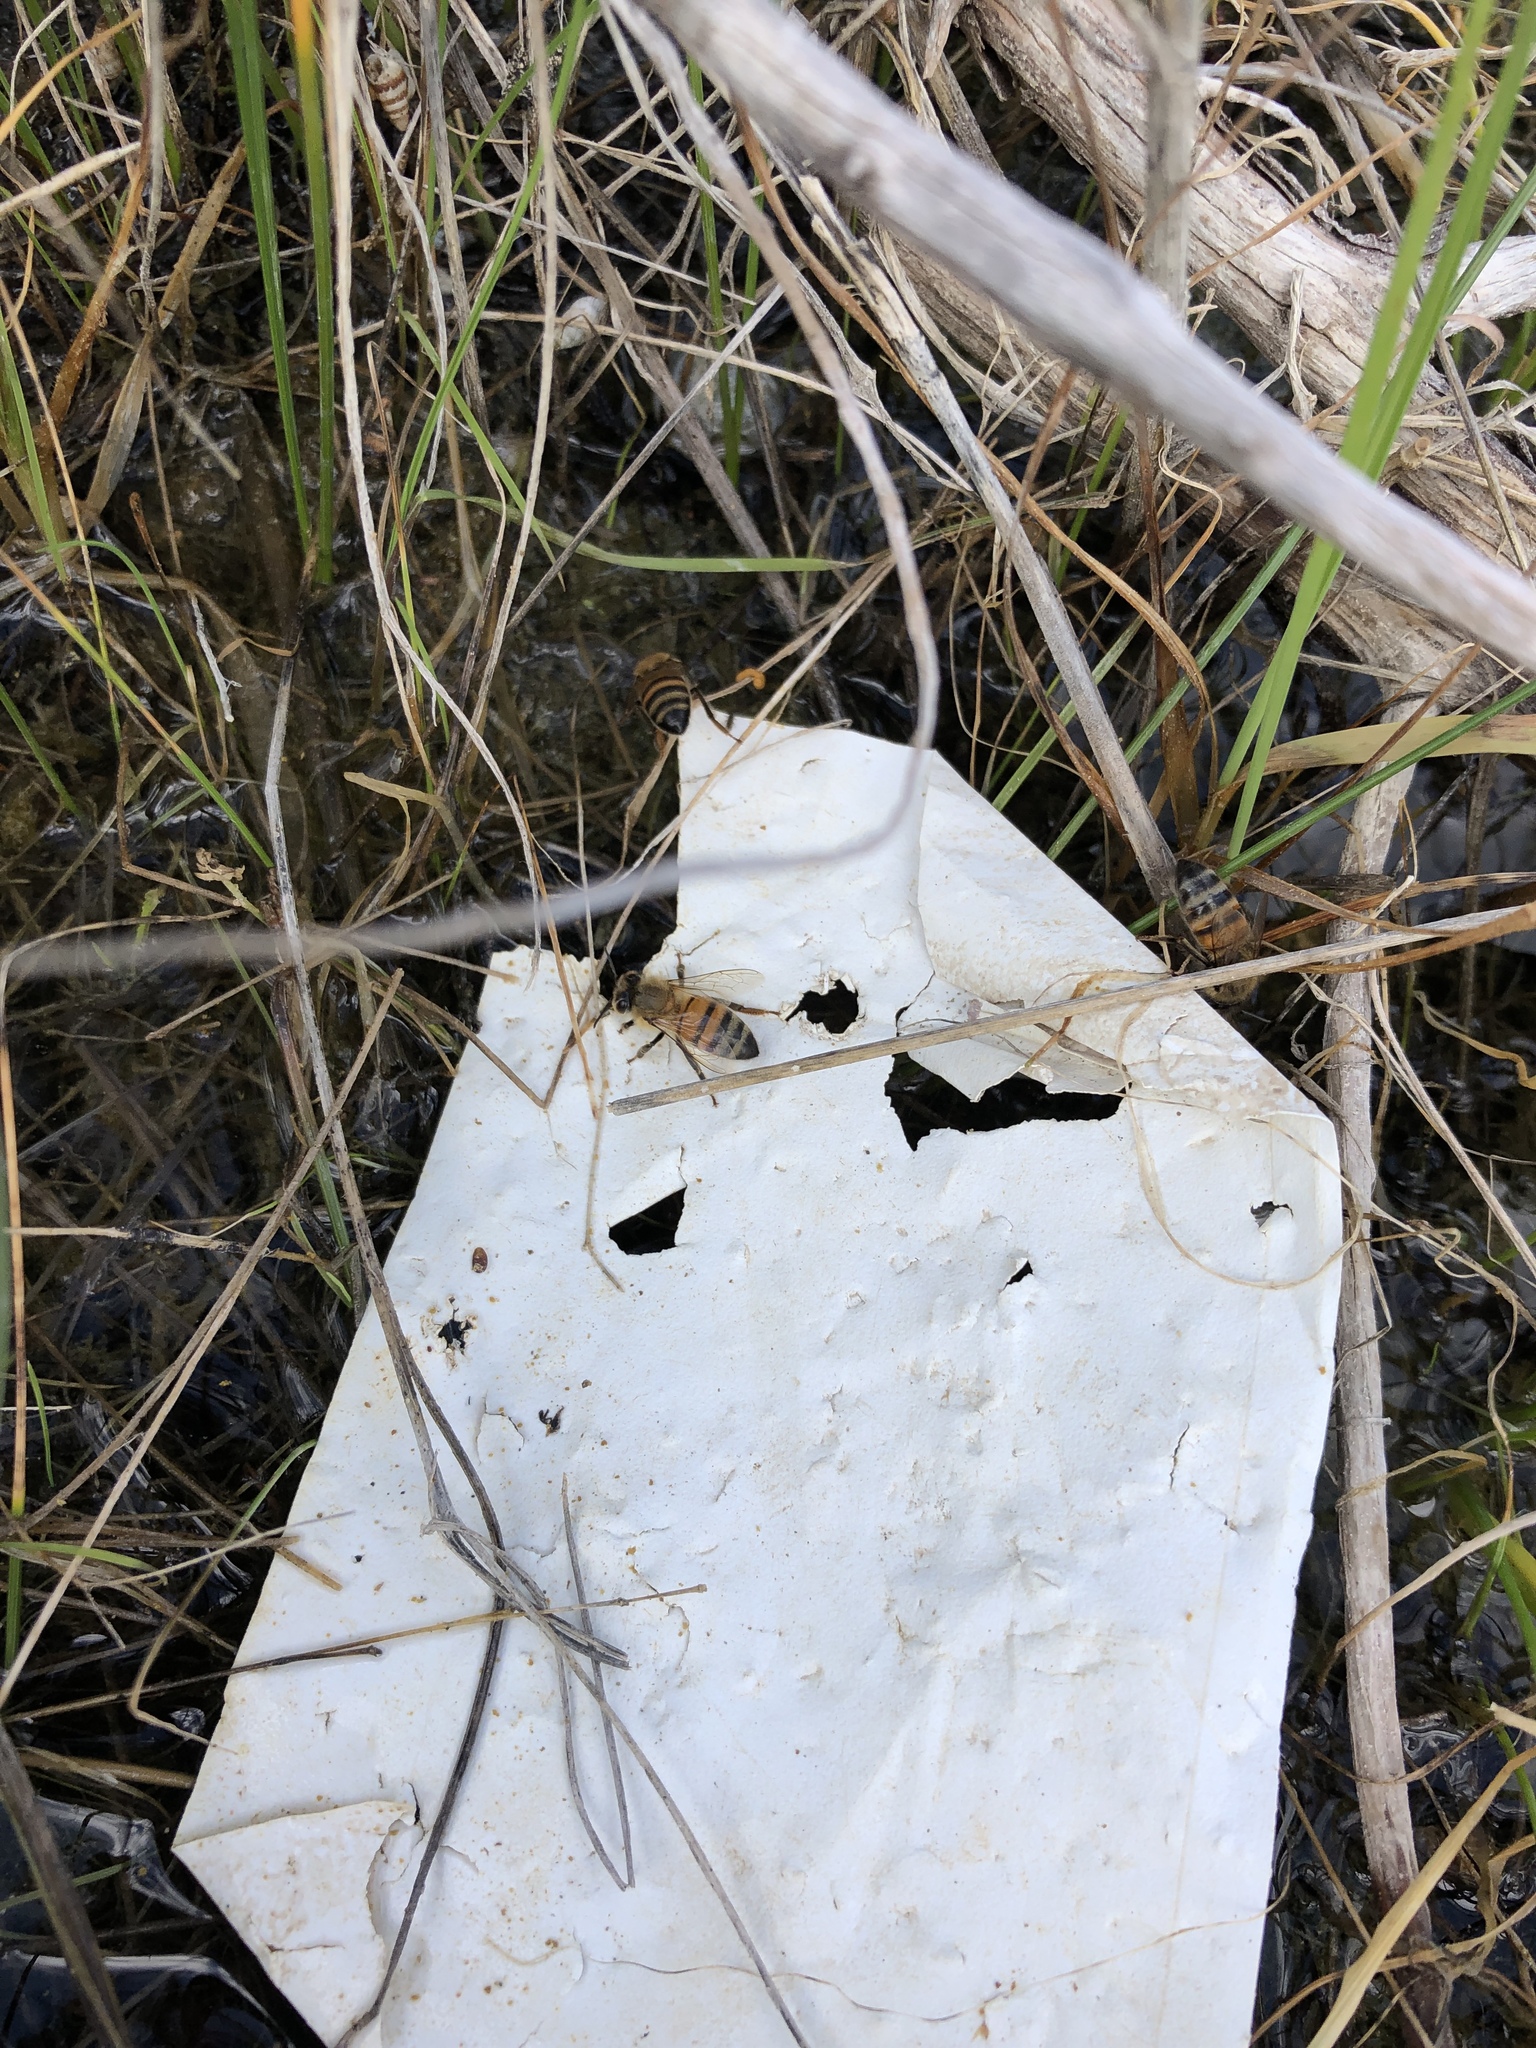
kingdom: Animalia
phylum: Arthropoda
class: Insecta
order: Hymenoptera
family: Apidae
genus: Apis
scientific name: Apis mellifera
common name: Honey bee
